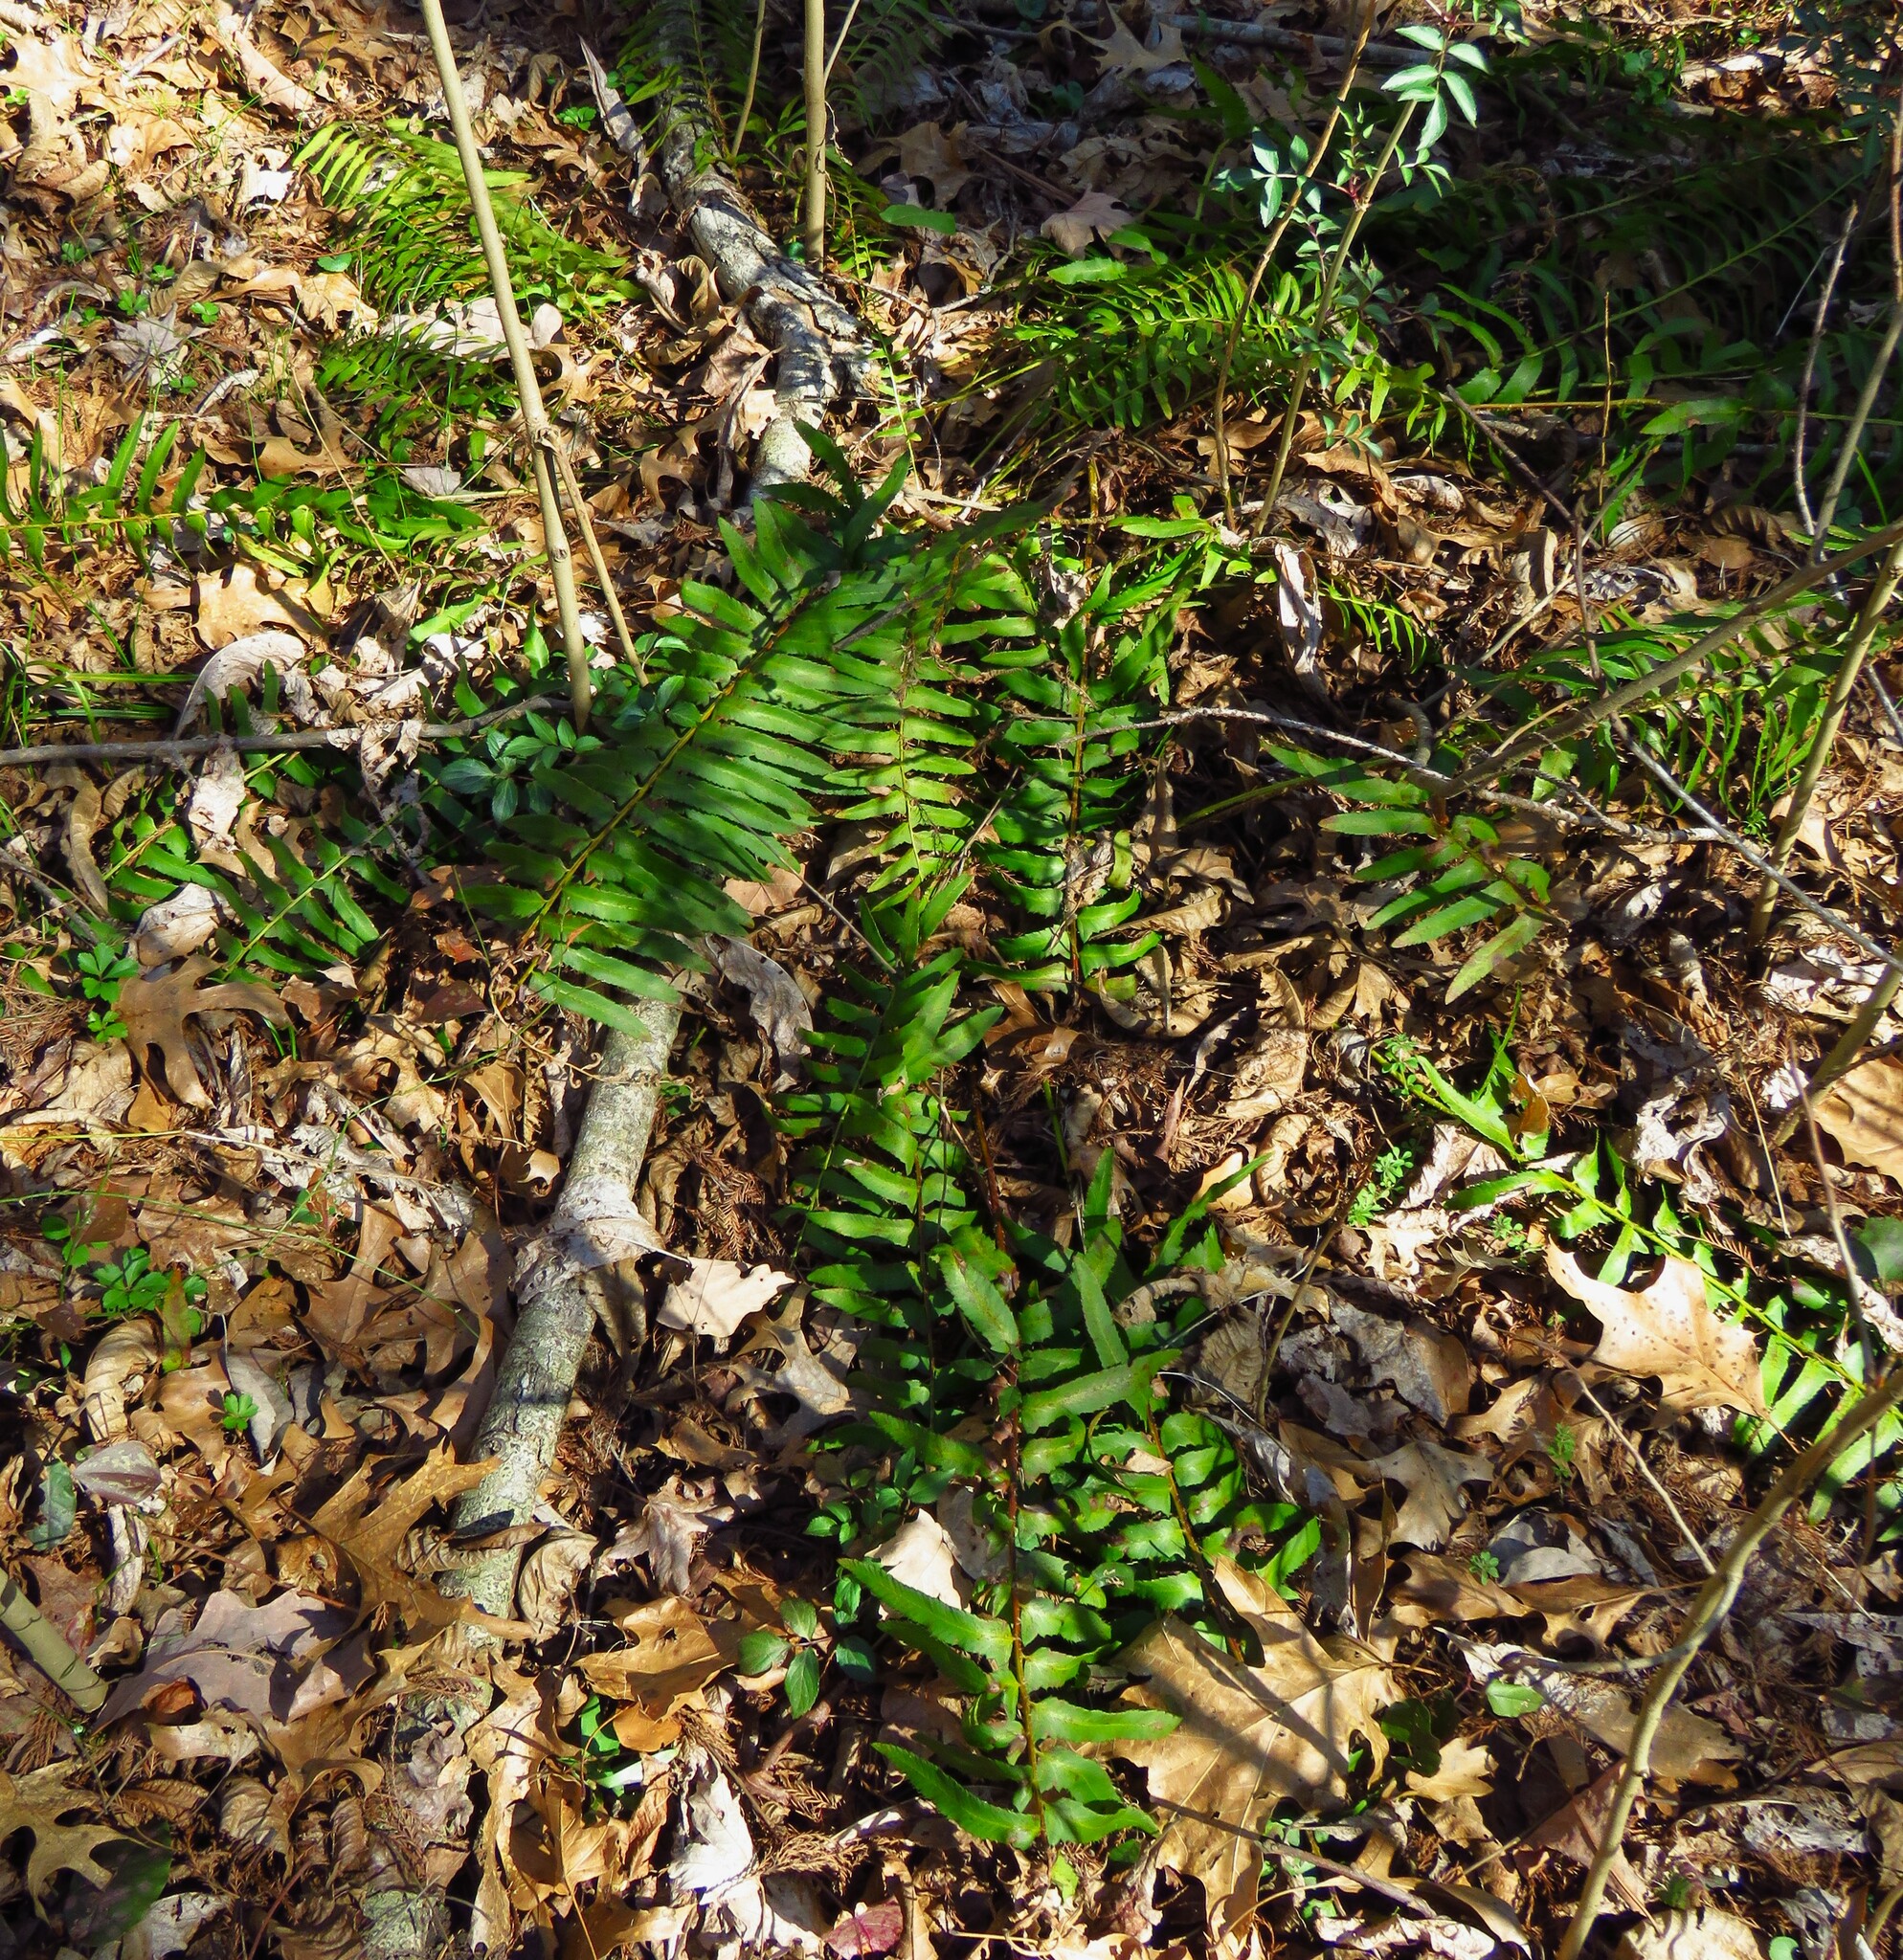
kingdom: Plantae
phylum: Tracheophyta
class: Polypodiopsida
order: Polypodiales
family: Dryopteridaceae
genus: Polystichum
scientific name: Polystichum acrostichoides
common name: Christmas fern
